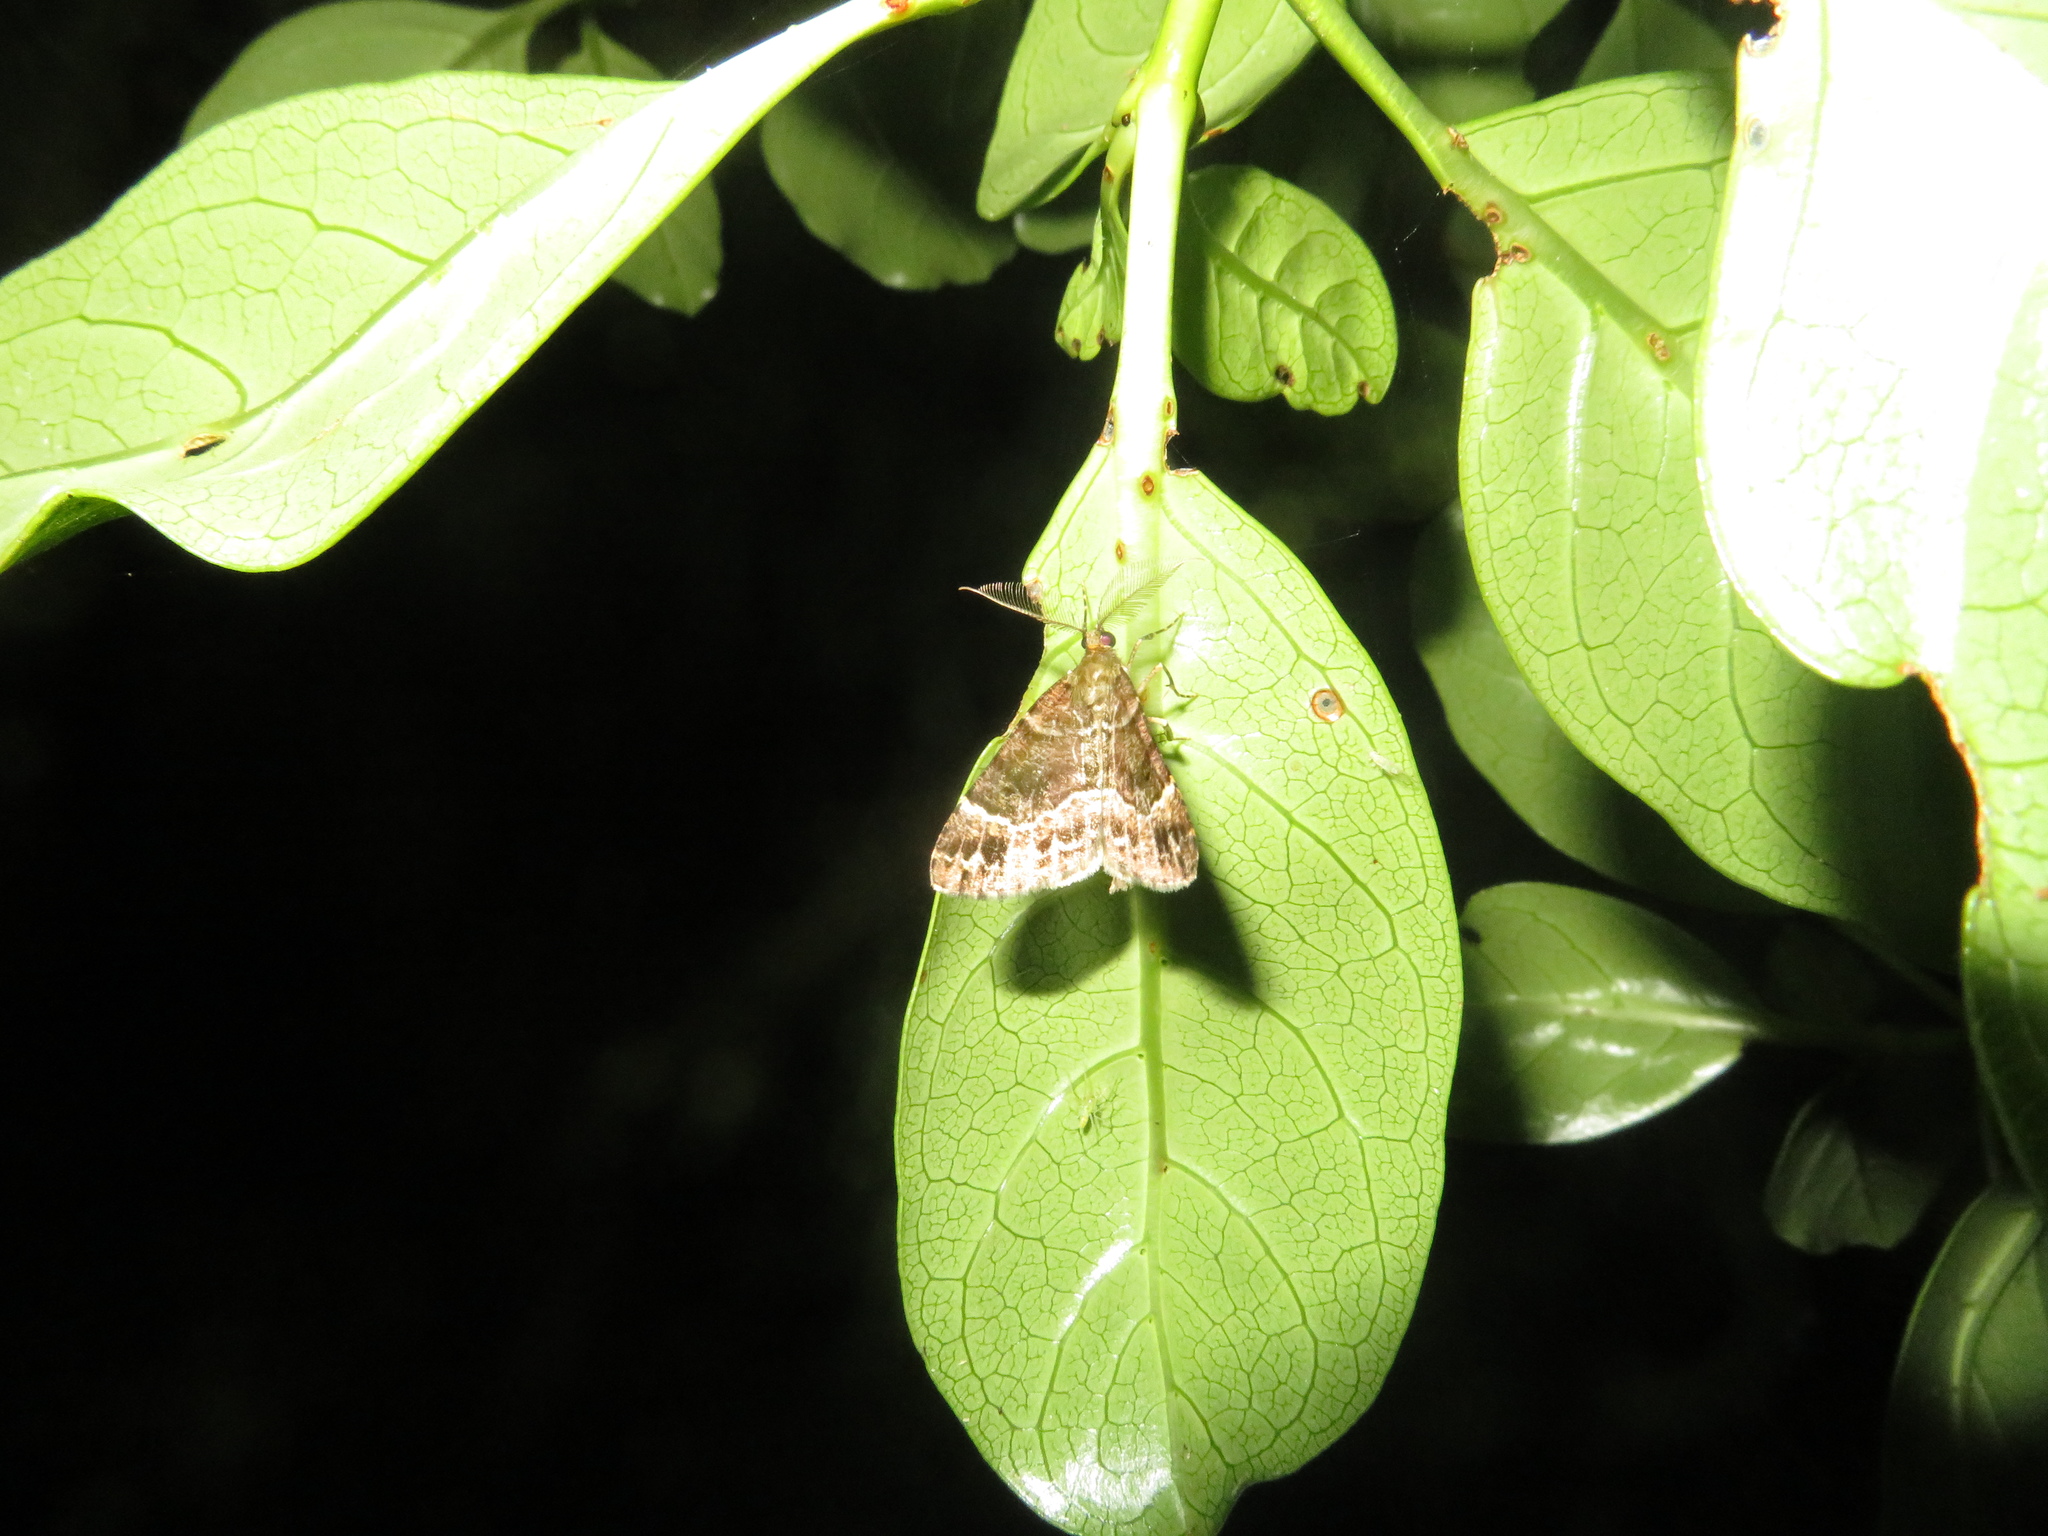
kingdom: Animalia
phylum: Arthropoda
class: Insecta
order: Lepidoptera
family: Geometridae
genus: Pseudocoremia
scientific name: Pseudocoremia productata
